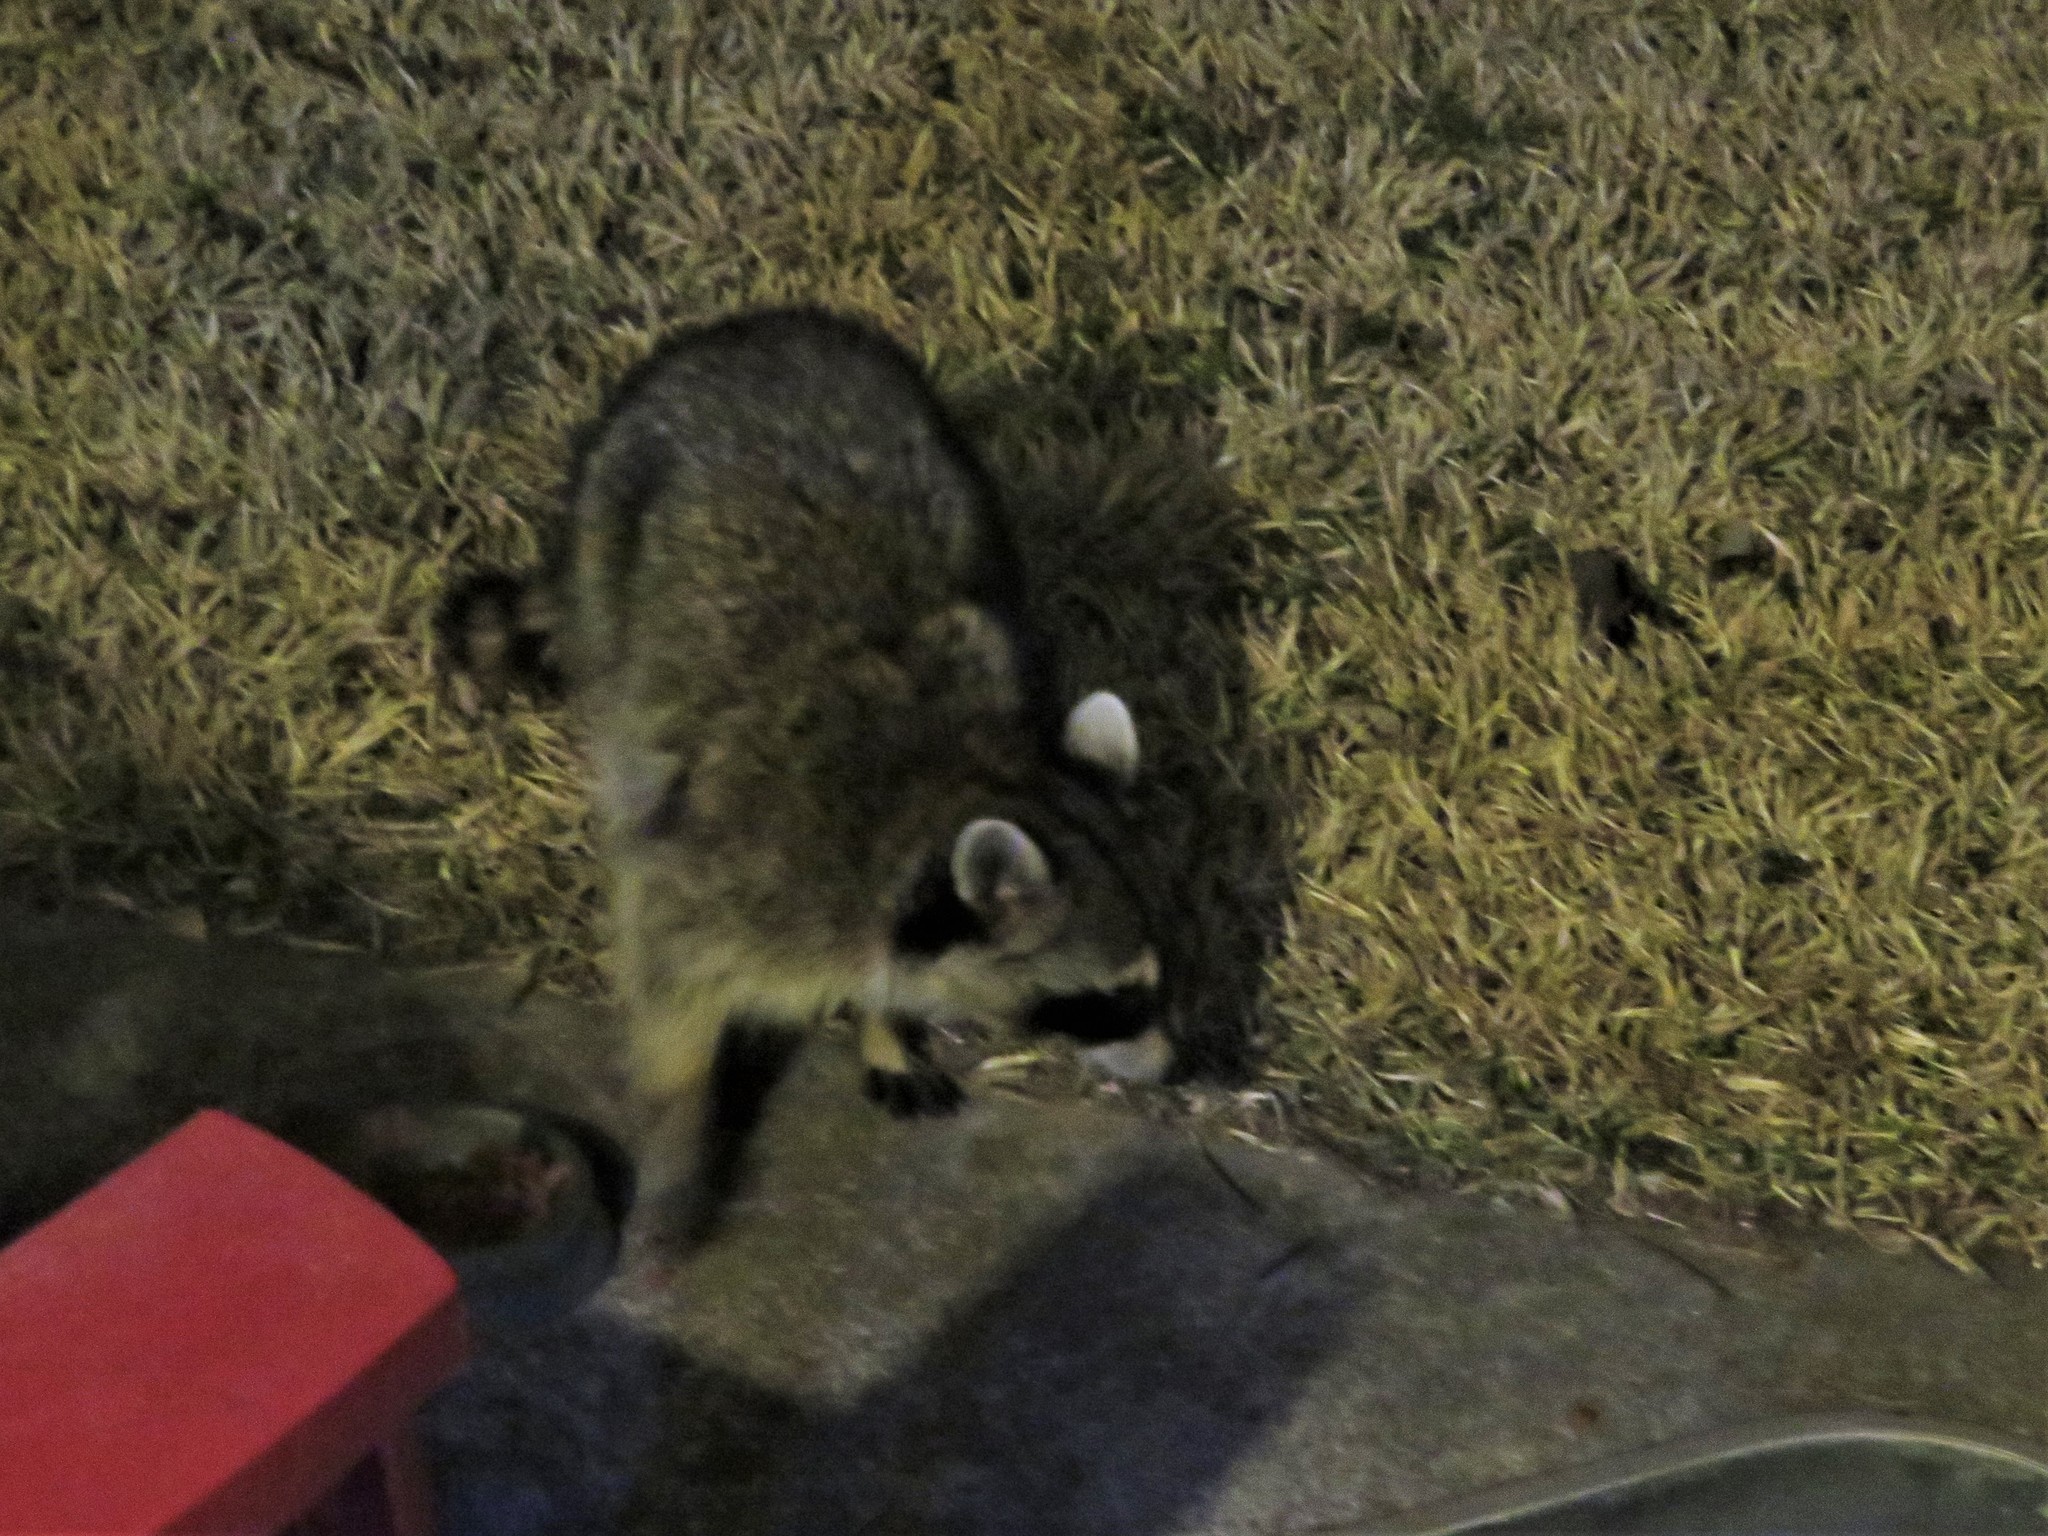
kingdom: Animalia
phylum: Chordata
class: Mammalia
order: Carnivora
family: Procyonidae
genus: Procyon
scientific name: Procyon lotor
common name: Raccoon
